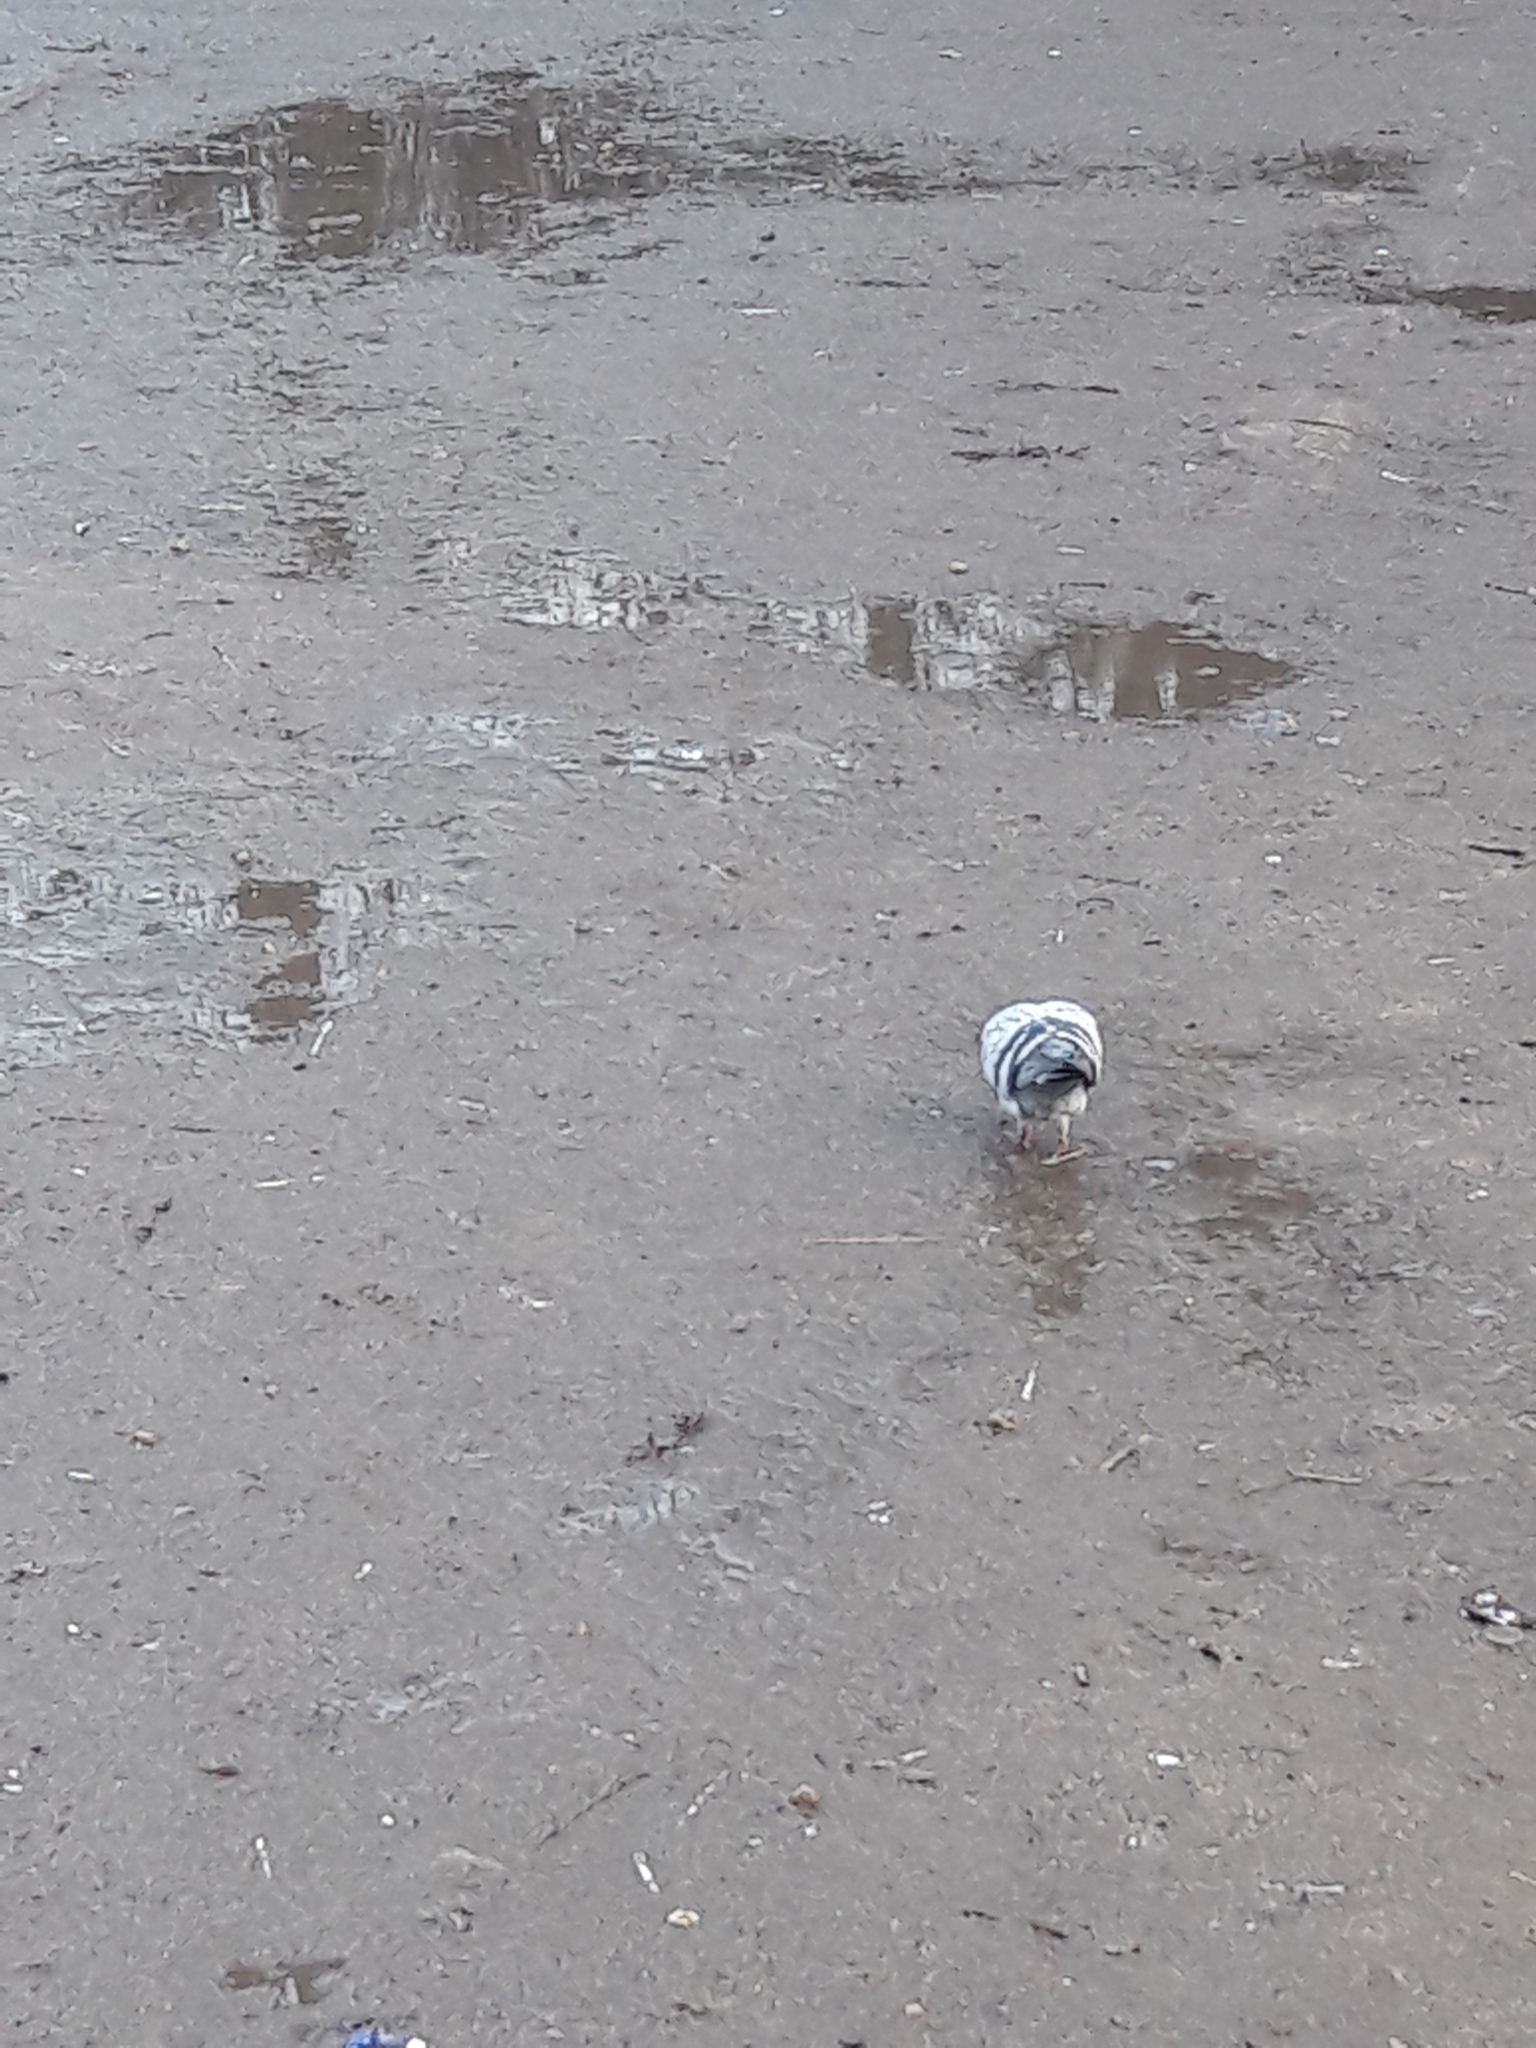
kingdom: Animalia
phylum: Chordata
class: Aves
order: Columbiformes
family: Columbidae
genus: Columba
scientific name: Columba livia
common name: Rock pigeon
